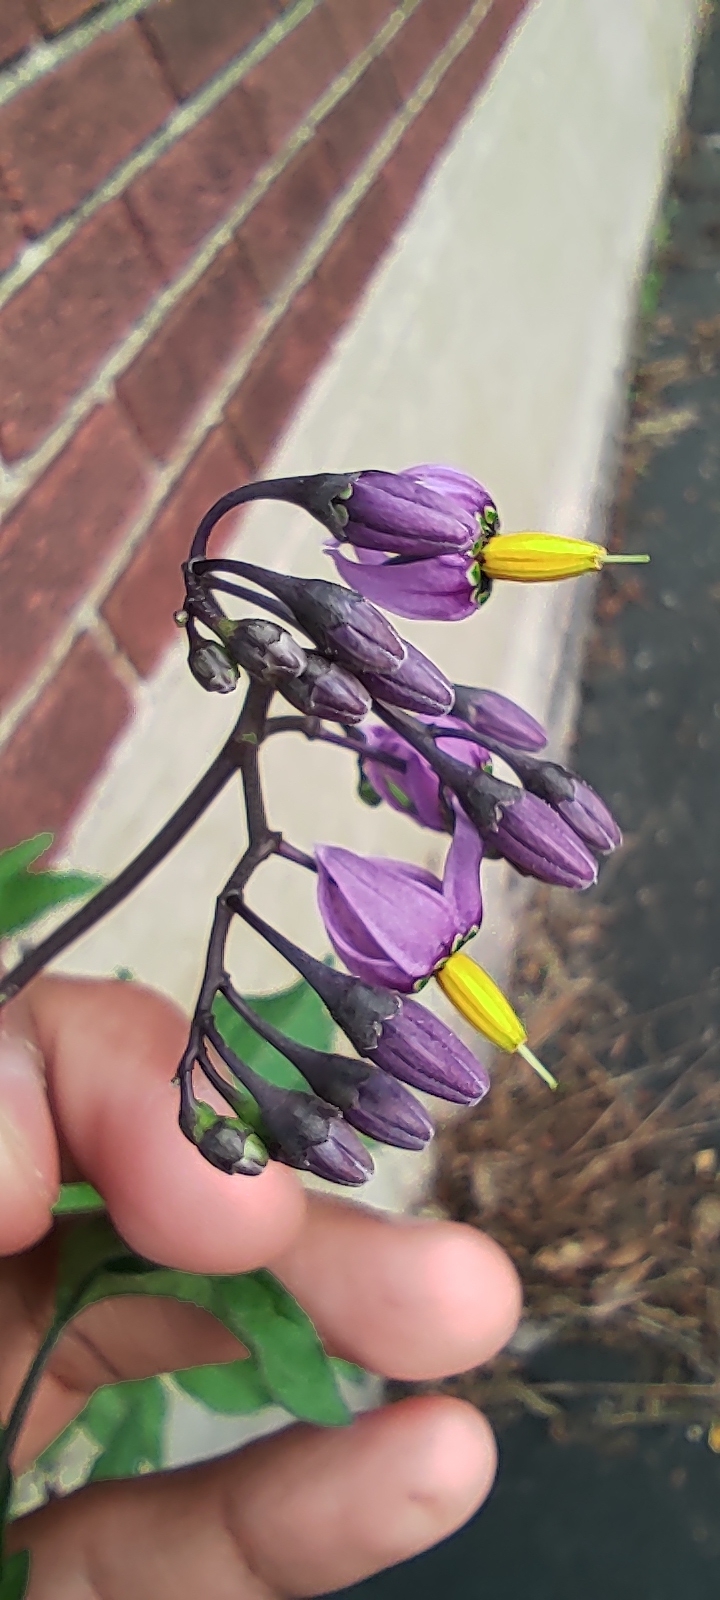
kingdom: Plantae
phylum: Tracheophyta
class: Magnoliopsida
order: Solanales
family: Solanaceae
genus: Solanum
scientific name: Solanum dulcamara
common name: Climbing nightshade
